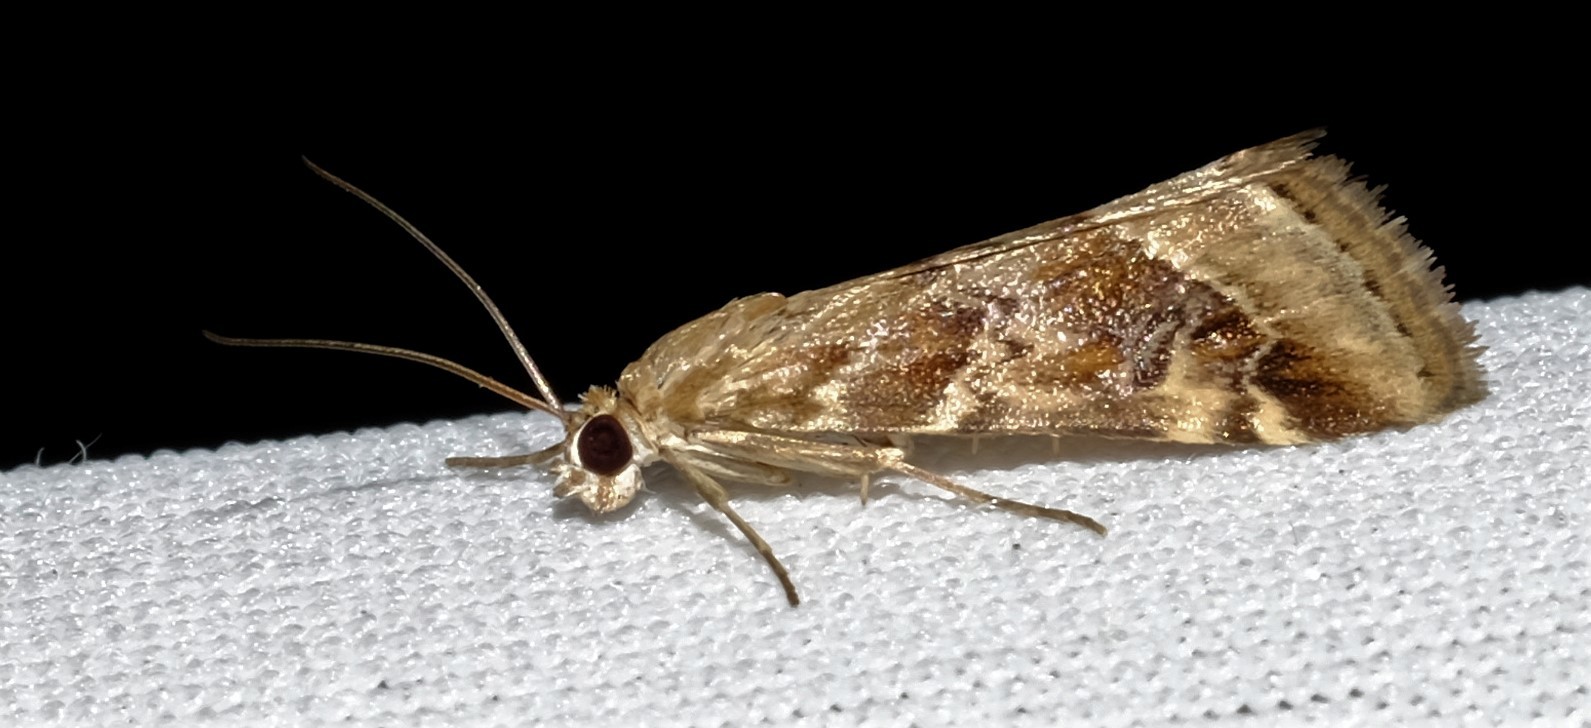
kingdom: Animalia
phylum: Arthropoda
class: Insecta
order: Lepidoptera
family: Crambidae
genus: Hellula
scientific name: Hellula hydralis
